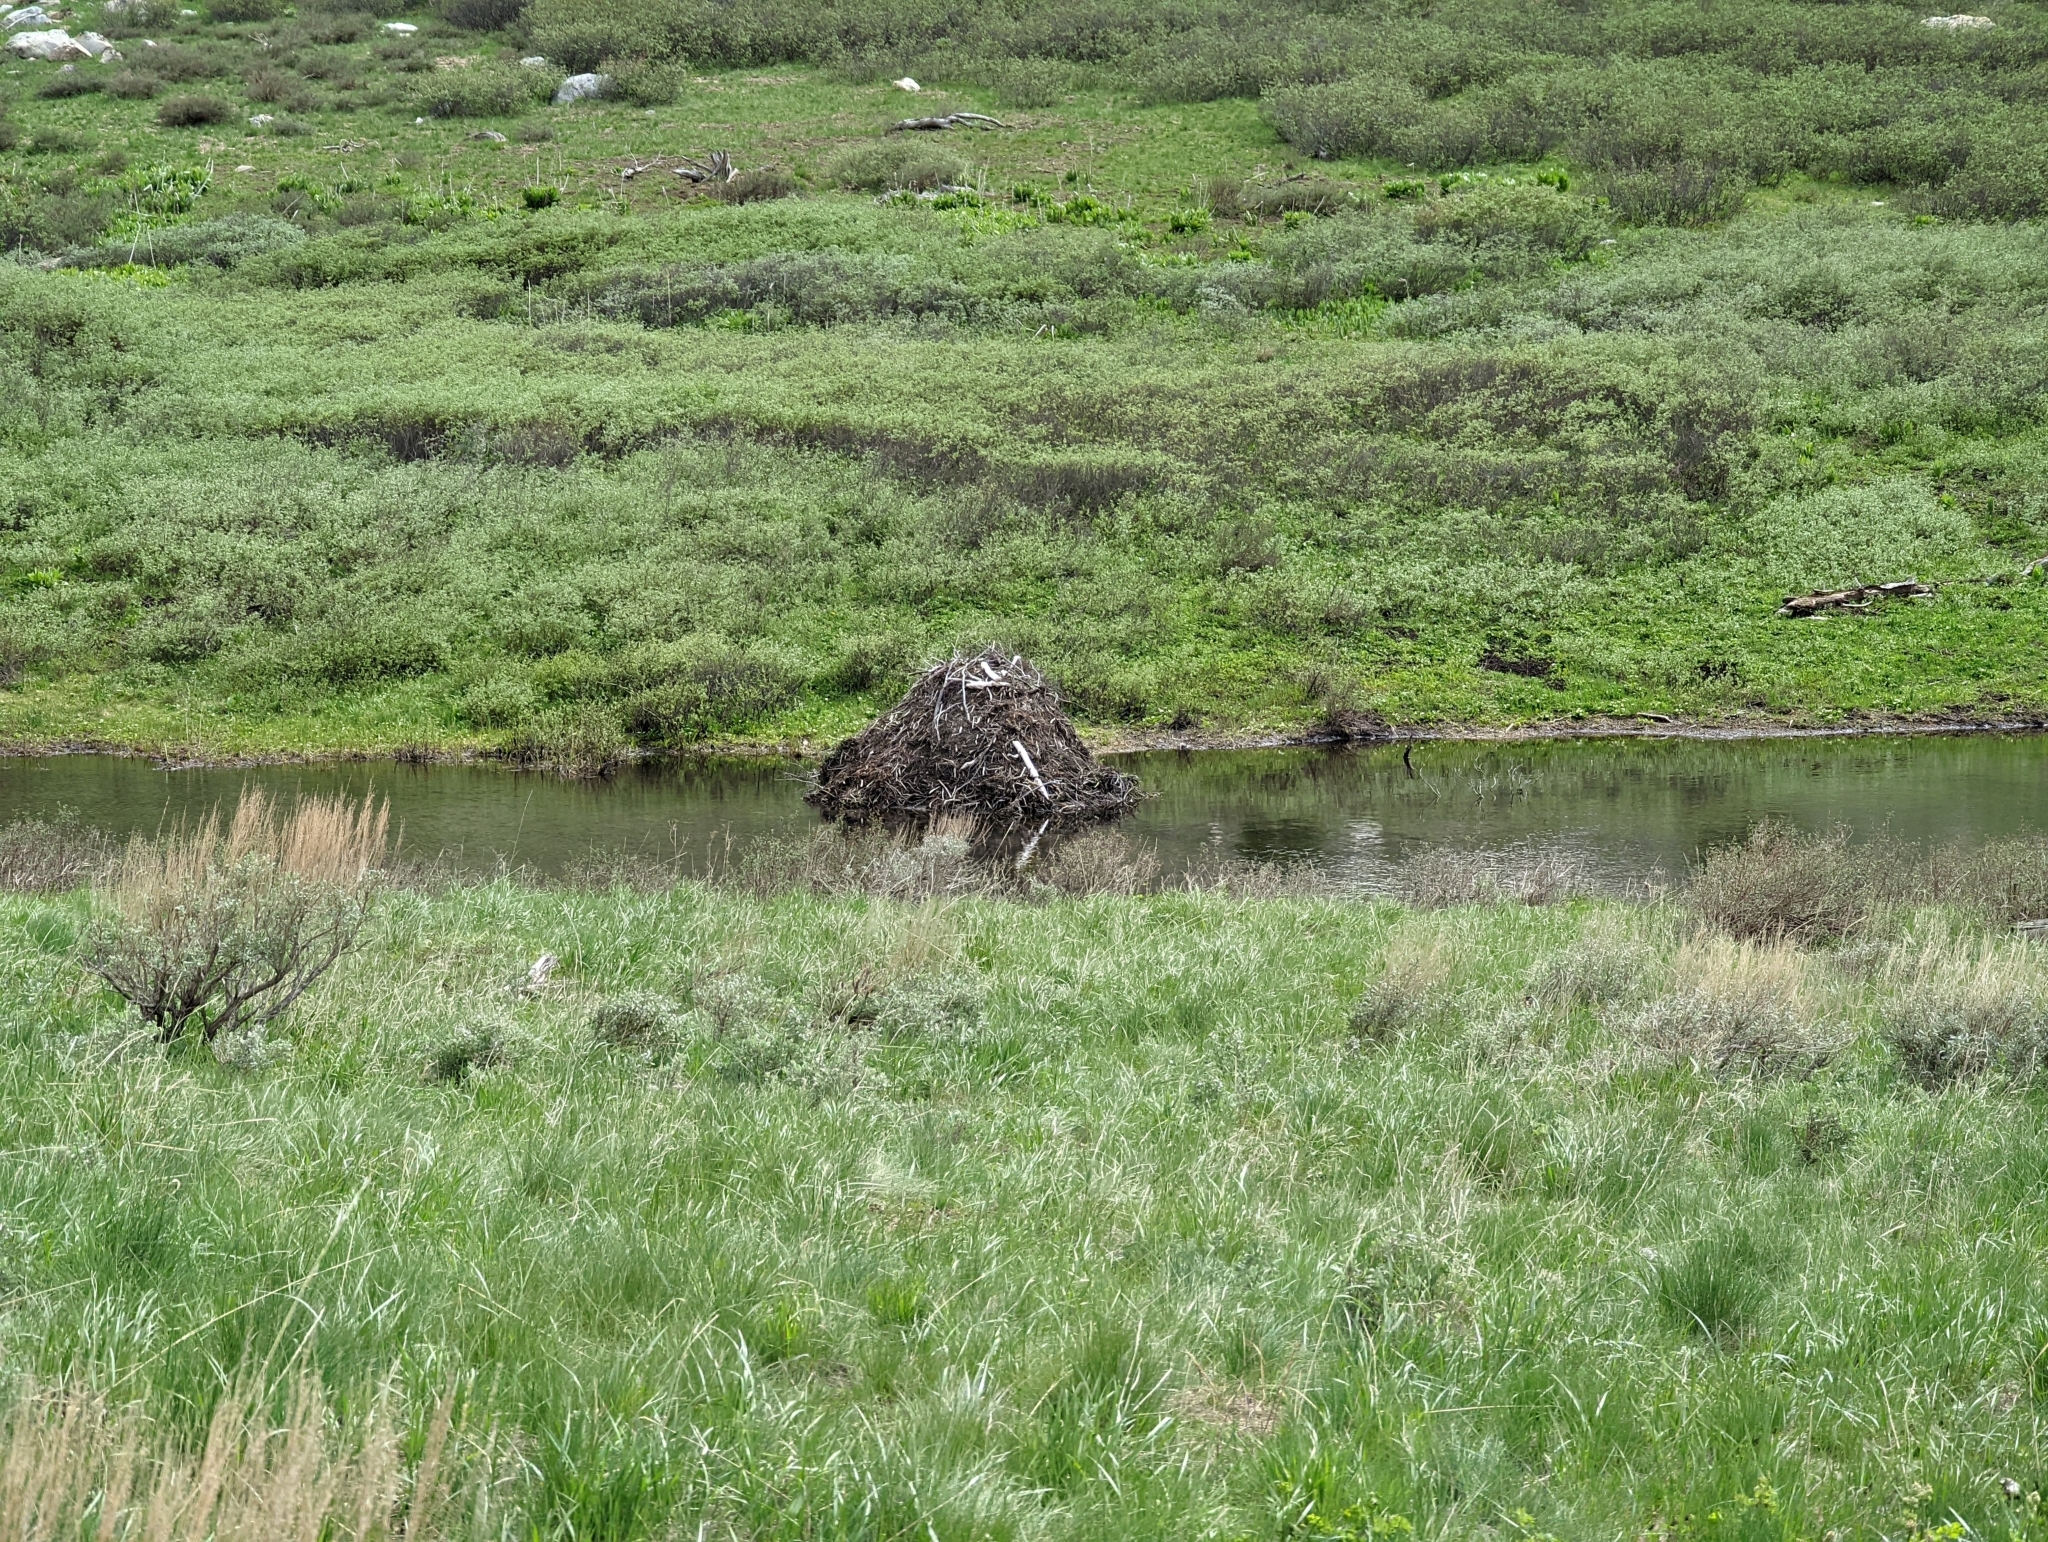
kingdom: Animalia
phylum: Chordata
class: Mammalia
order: Rodentia
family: Castoridae
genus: Castor
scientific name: Castor canadensis
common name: American beaver
